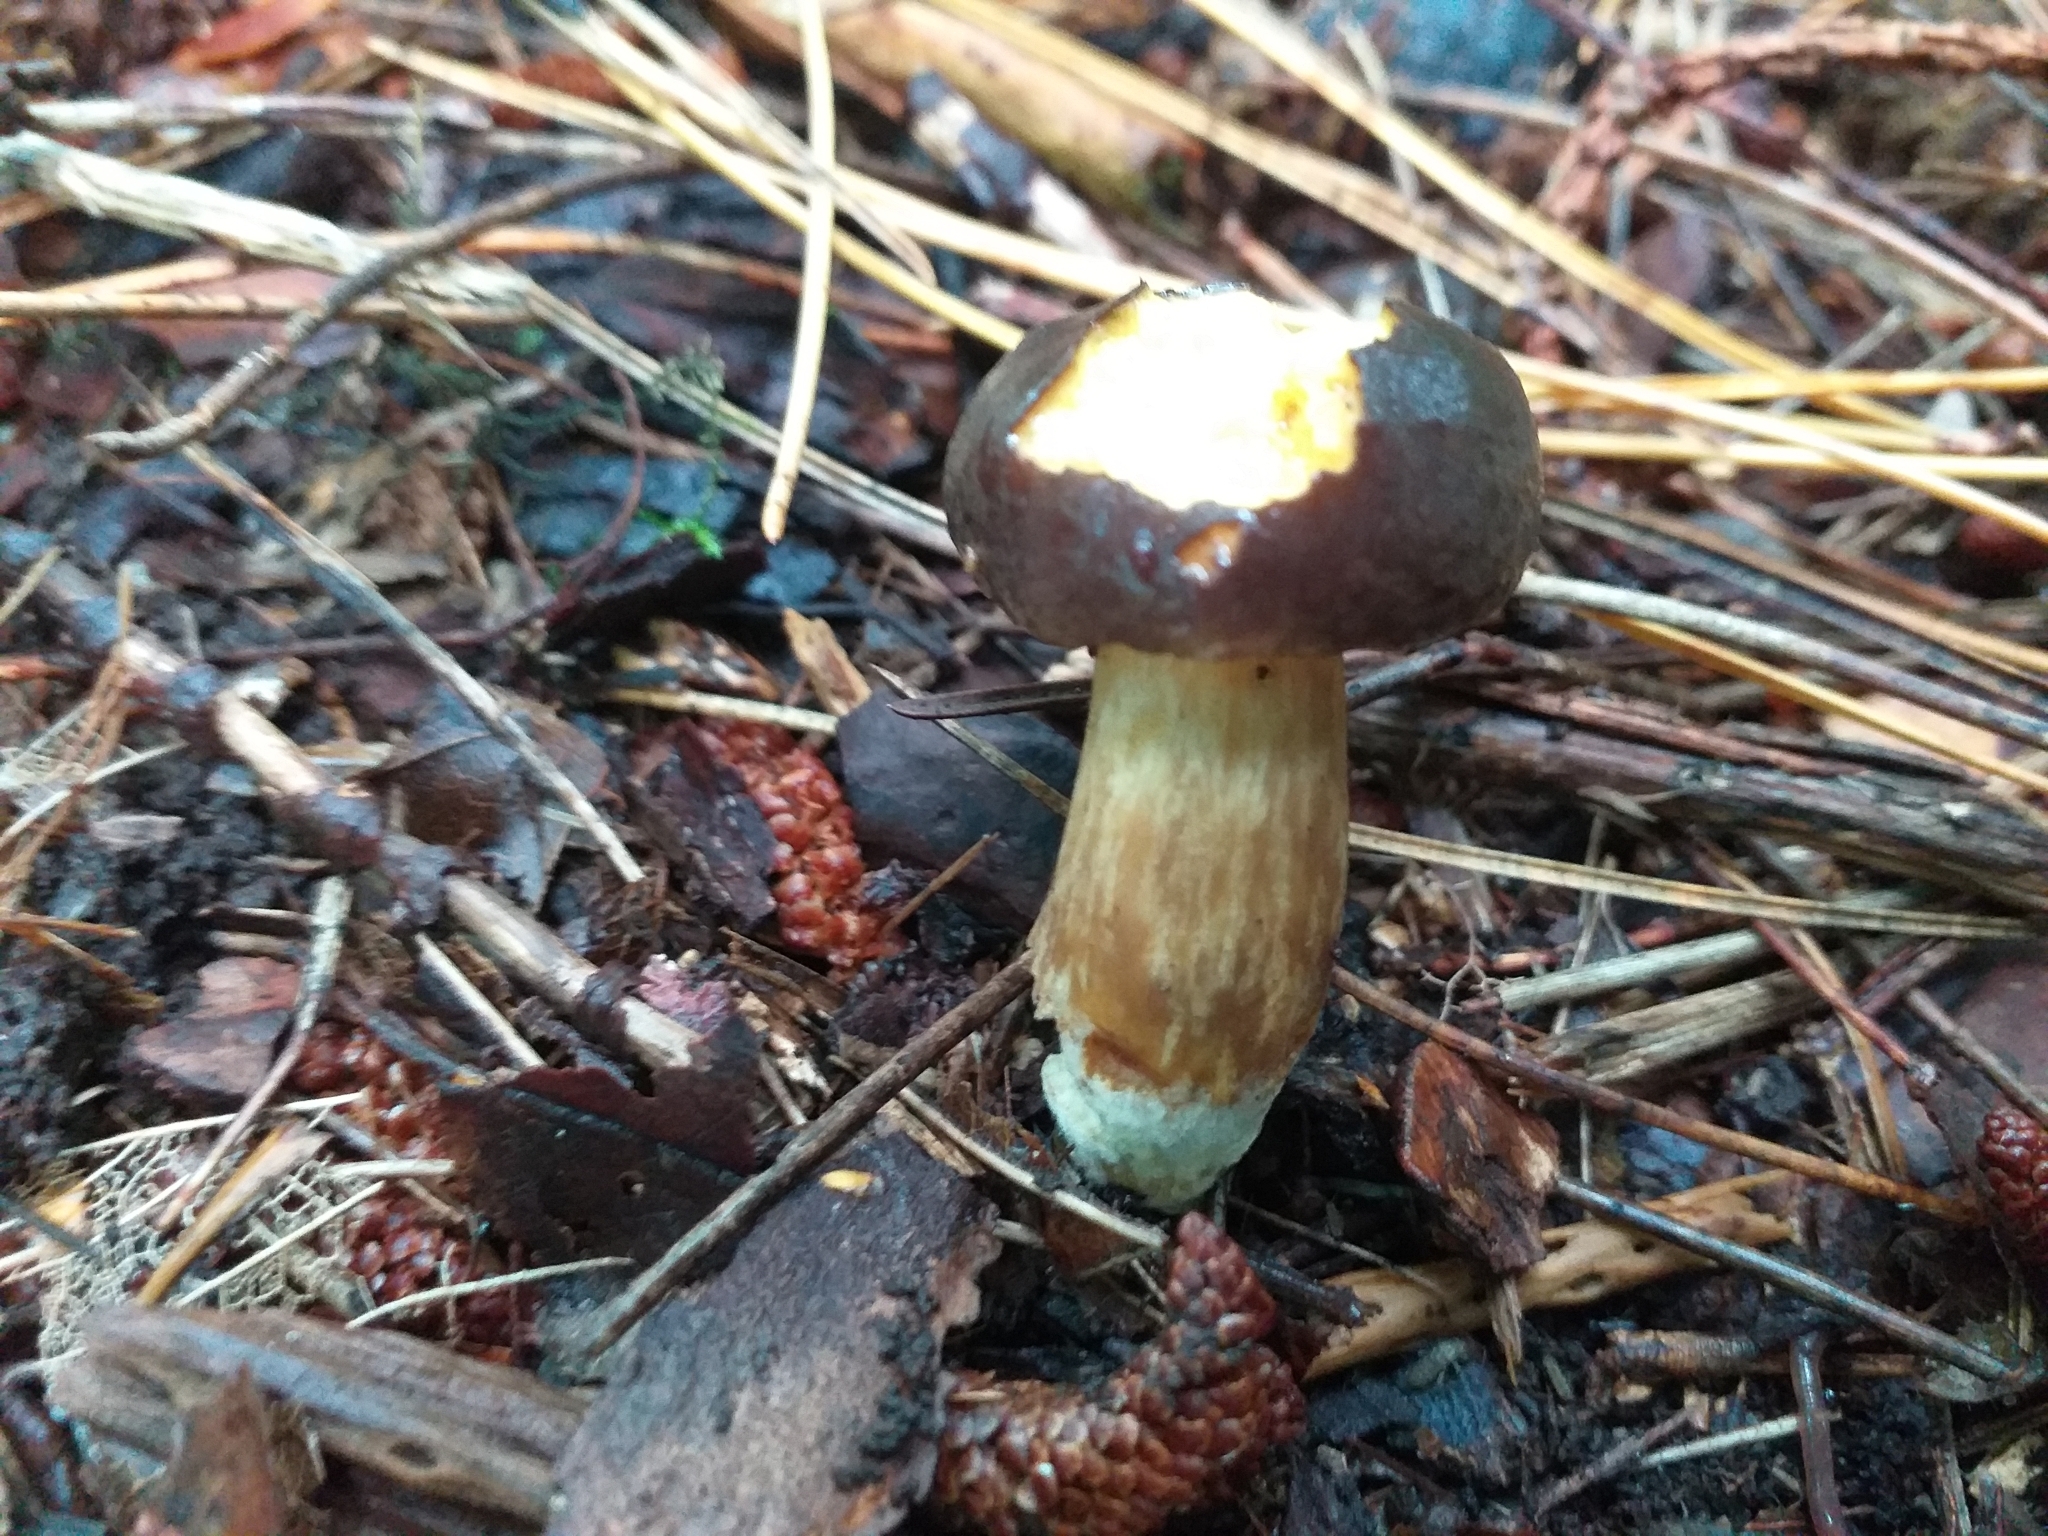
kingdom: Fungi
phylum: Basidiomycota
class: Agaricomycetes
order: Boletales
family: Boletaceae
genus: Imleria
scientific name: Imleria badia
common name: Bay bolete
